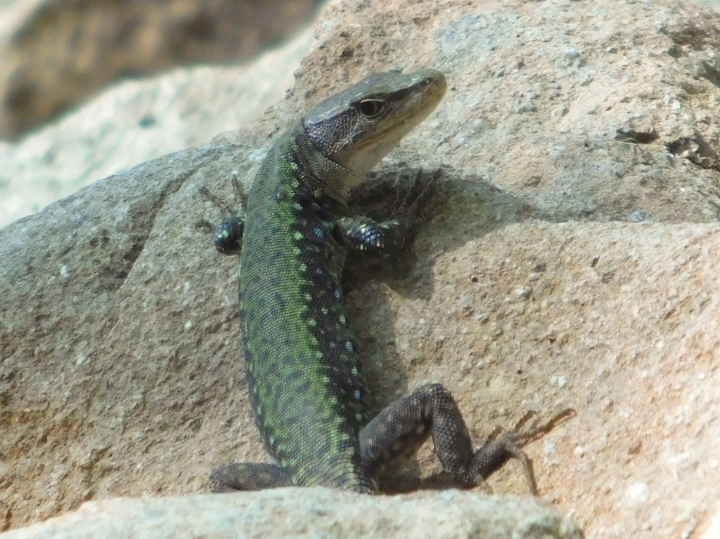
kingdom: Animalia
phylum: Chordata
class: Squamata
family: Lacertidae
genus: Darevskia
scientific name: Darevskia brauneri
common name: Brauner's rock lizard
